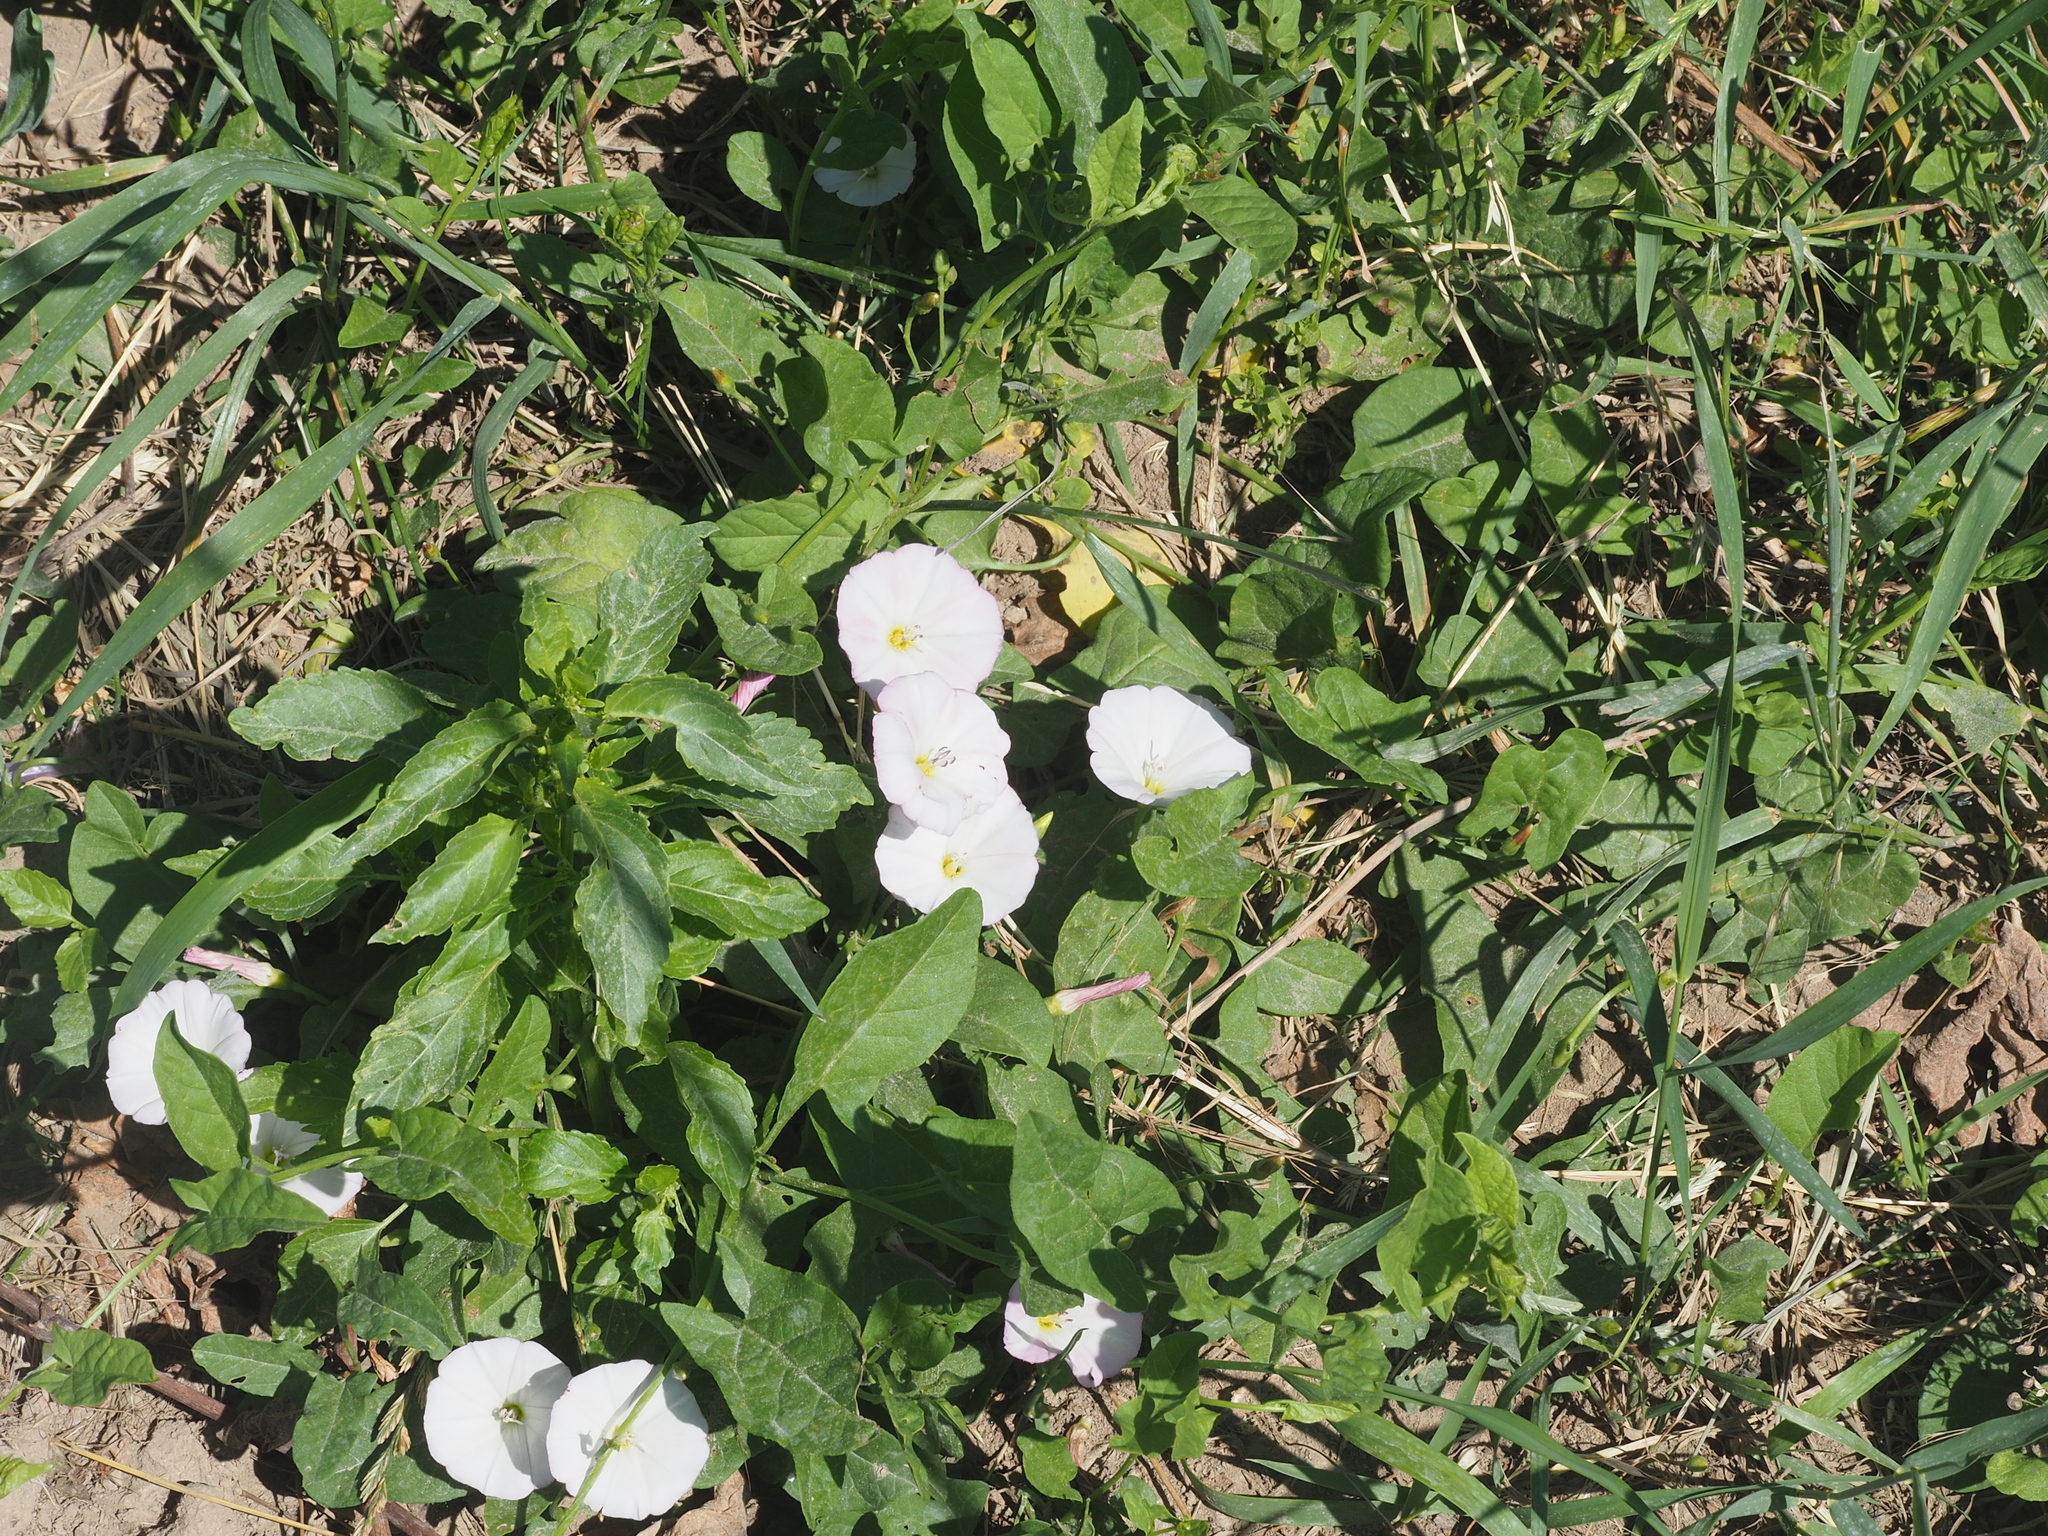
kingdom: Plantae
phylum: Tracheophyta
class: Magnoliopsida
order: Solanales
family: Convolvulaceae
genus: Convolvulus
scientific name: Convolvulus arvensis
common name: Field bindweed
